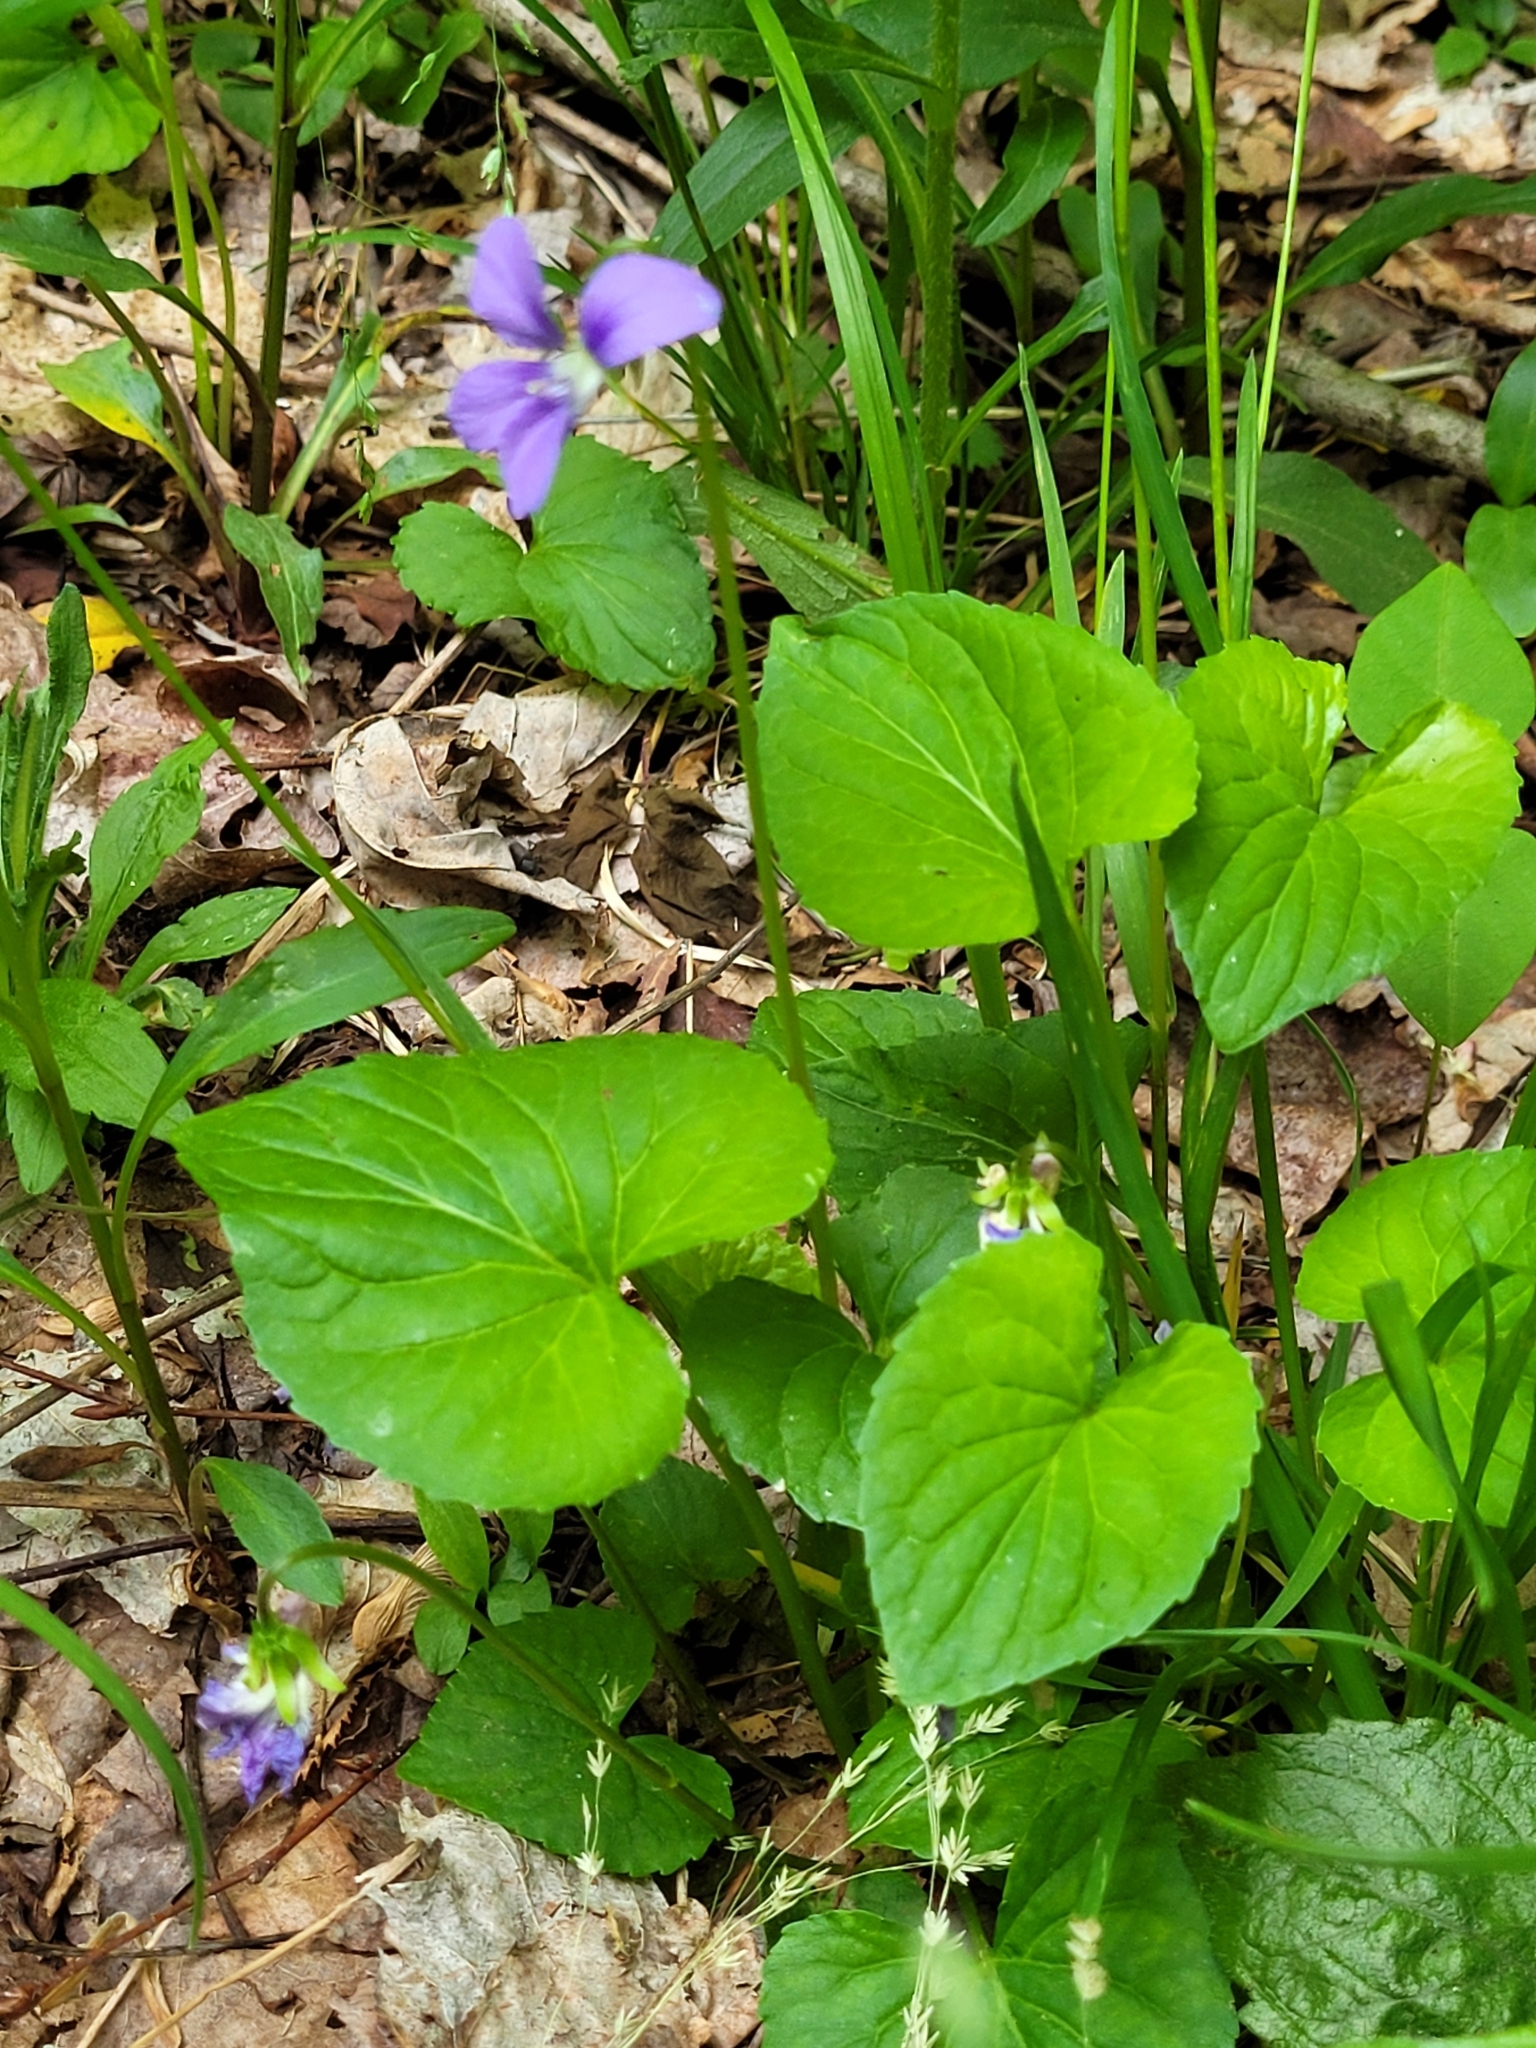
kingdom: Plantae
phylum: Tracheophyta
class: Magnoliopsida
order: Malpighiales
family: Violaceae
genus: Viola
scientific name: Viola sororia
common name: Dooryard violet
